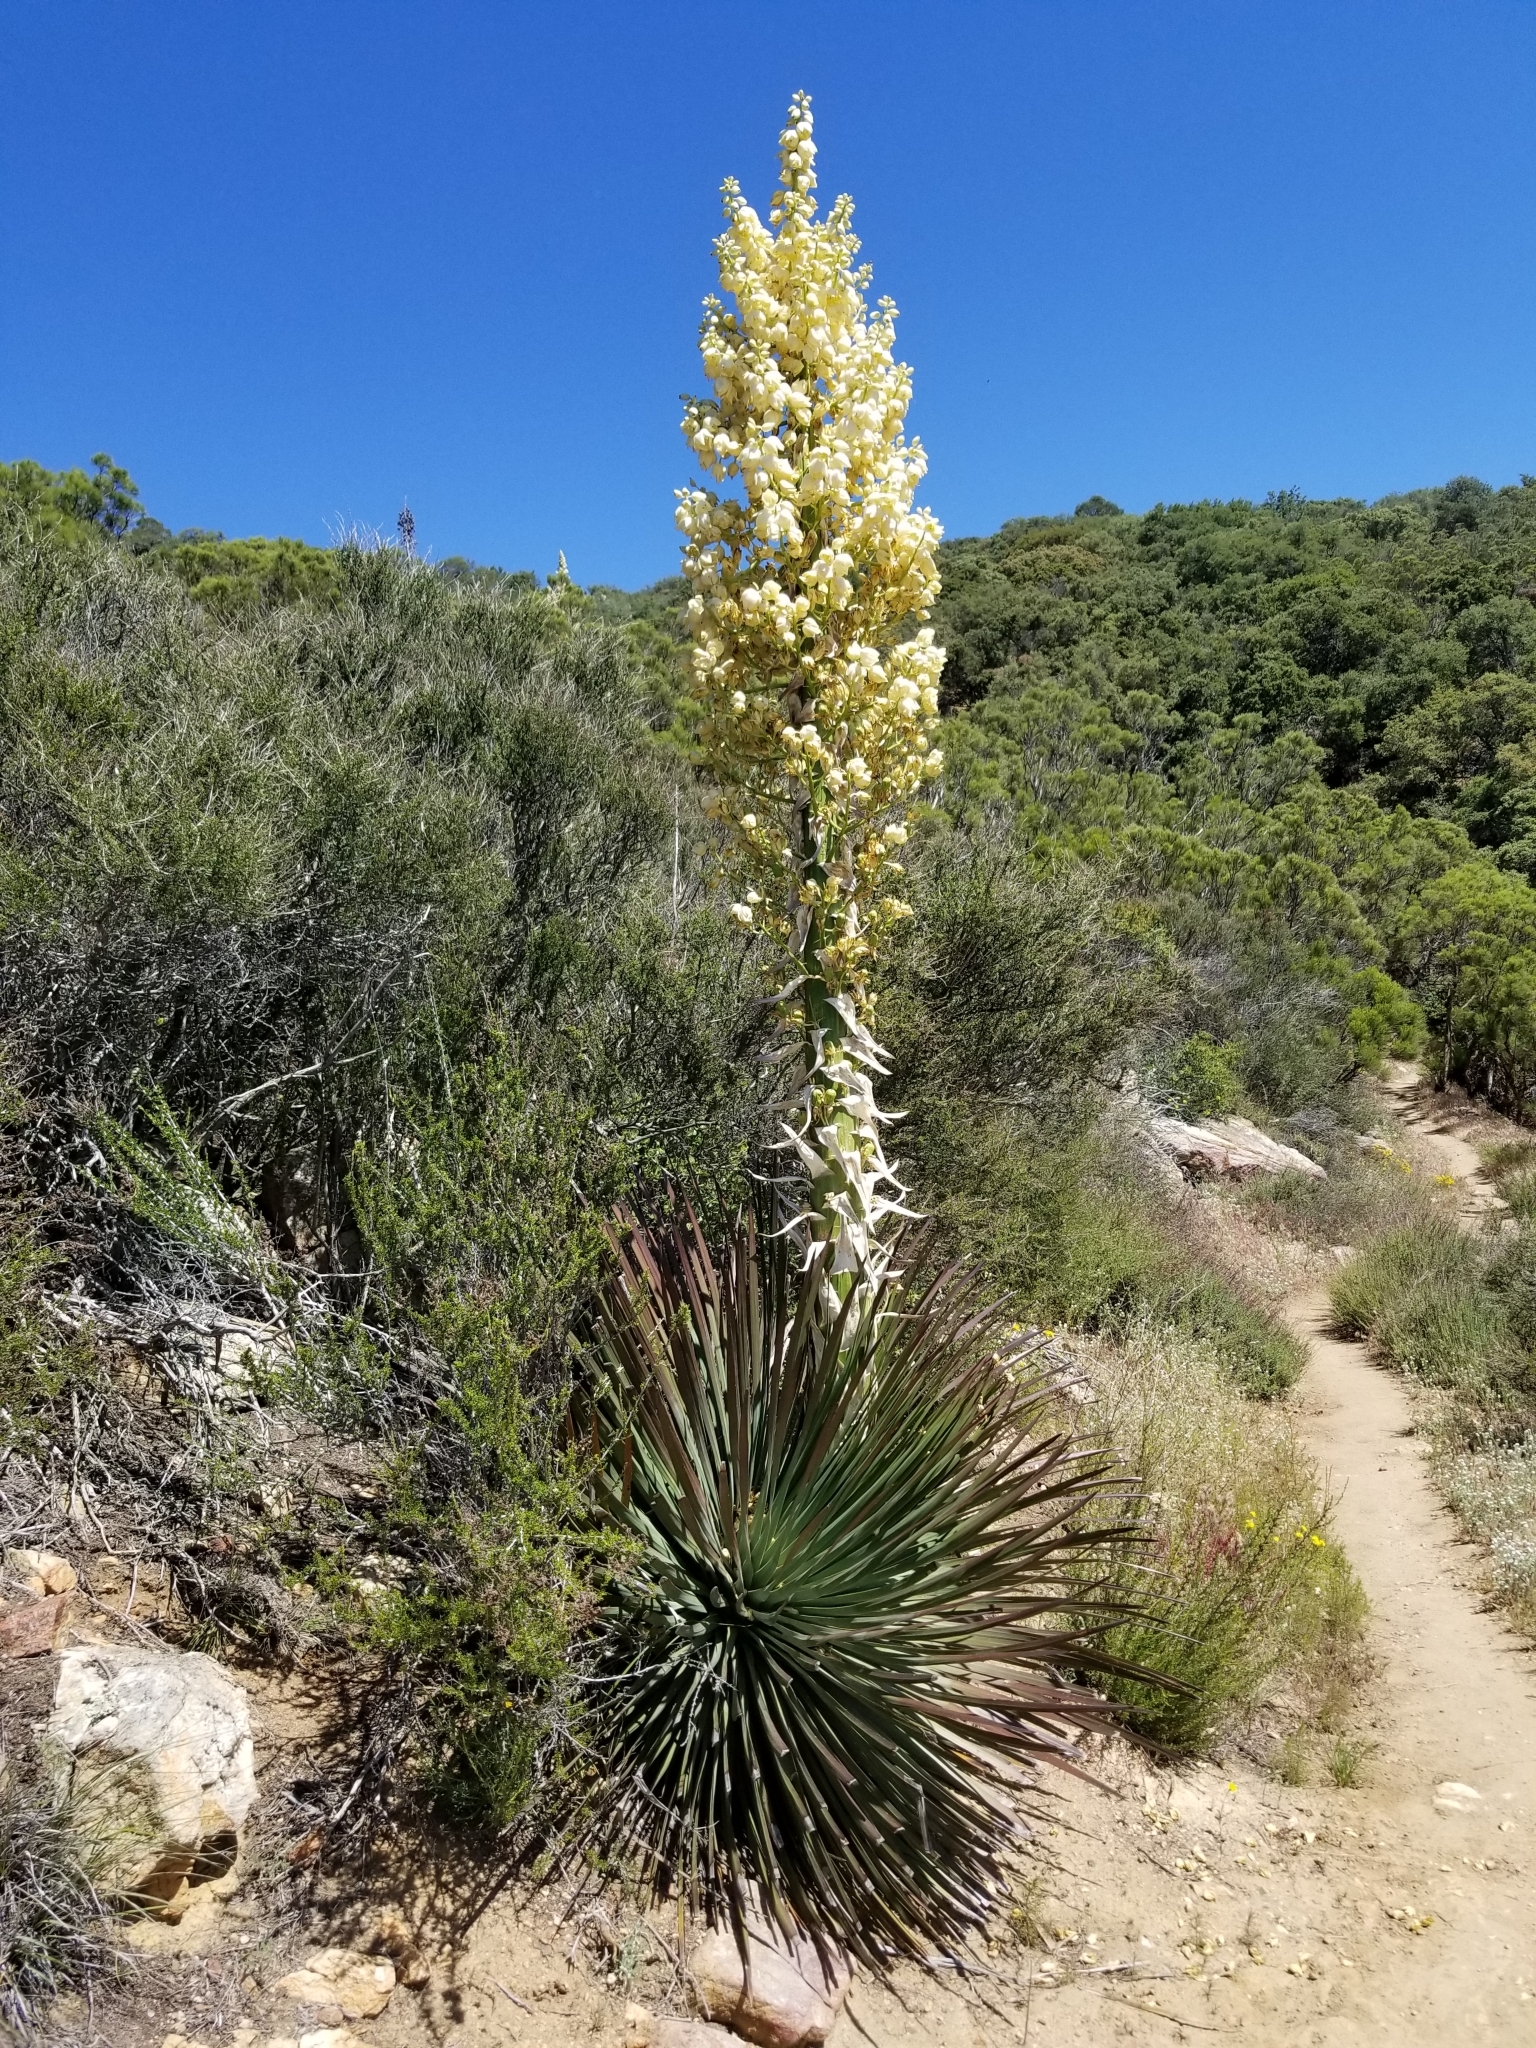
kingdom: Plantae
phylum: Tracheophyta
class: Liliopsida
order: Asparagales
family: Asparagaceae
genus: Hesperoyucca
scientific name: Hesperoyucca whipplei
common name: Our lord's-candle
